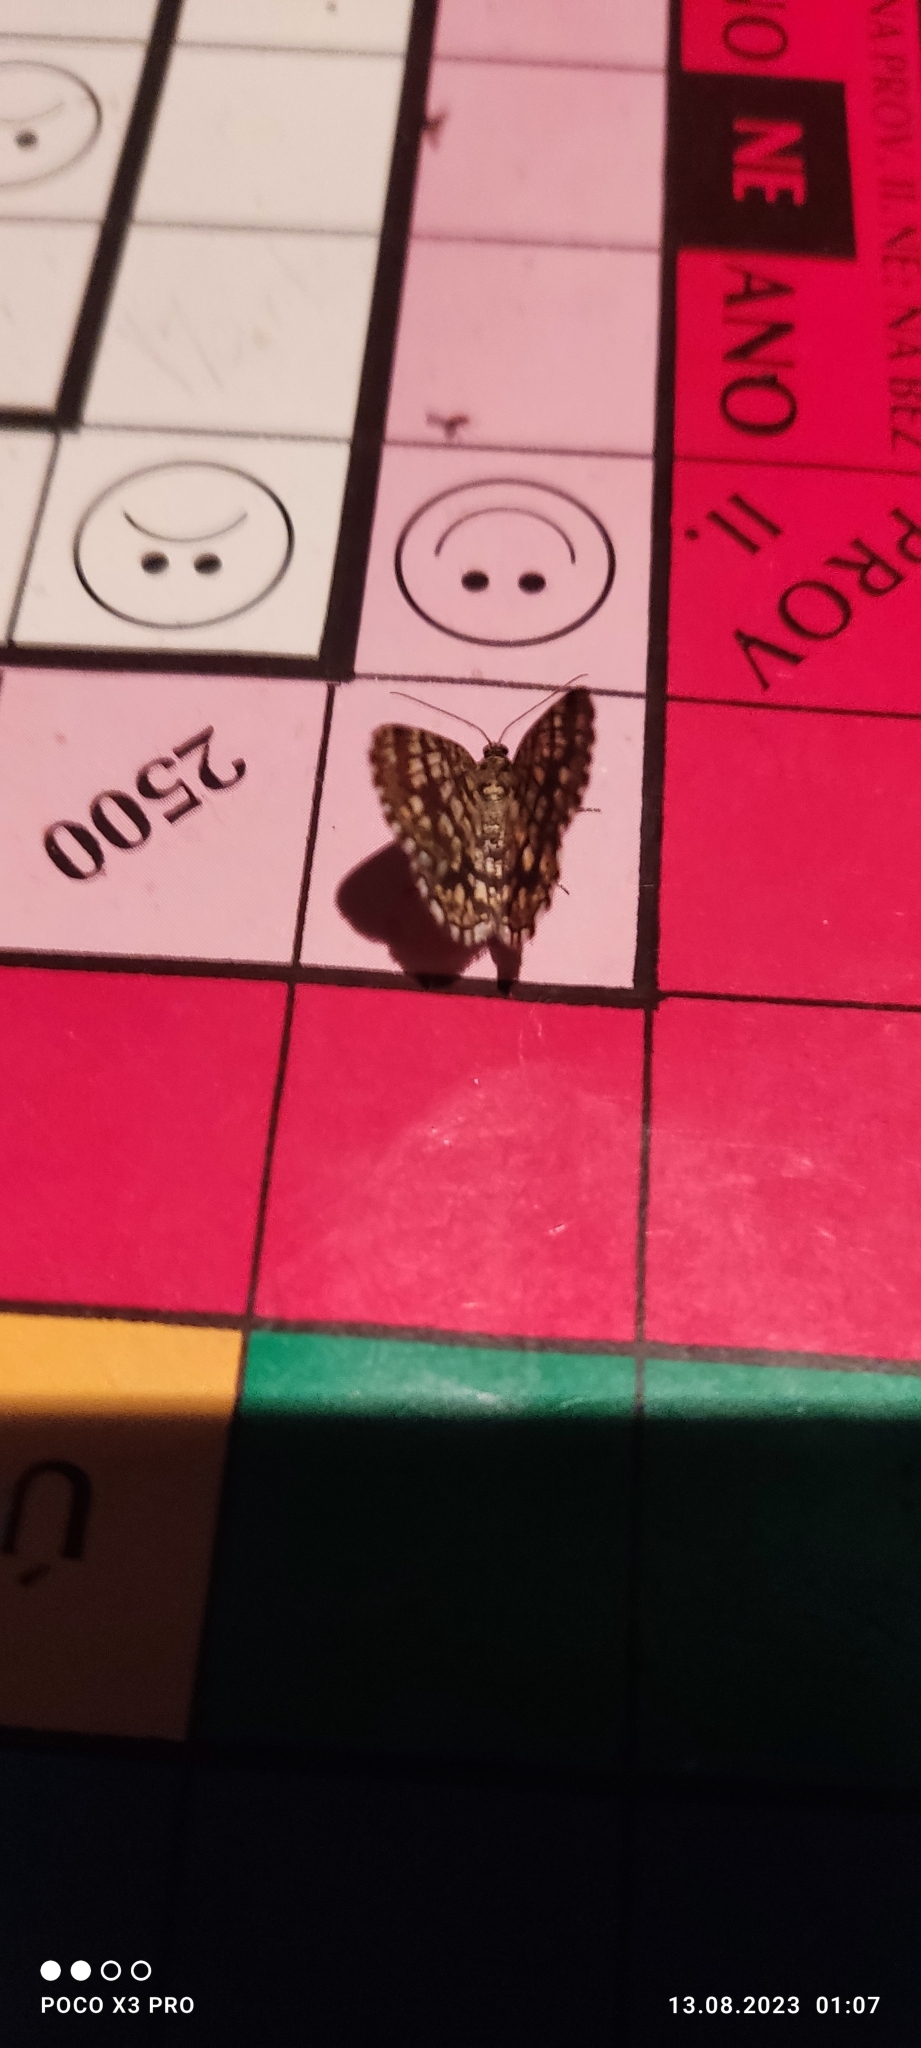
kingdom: Animalia
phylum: Arthropoda
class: Insecta
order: Lepidoptera
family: Geometridae
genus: Chiasmia
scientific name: Chiasmia clathrata
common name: Latticed heath
